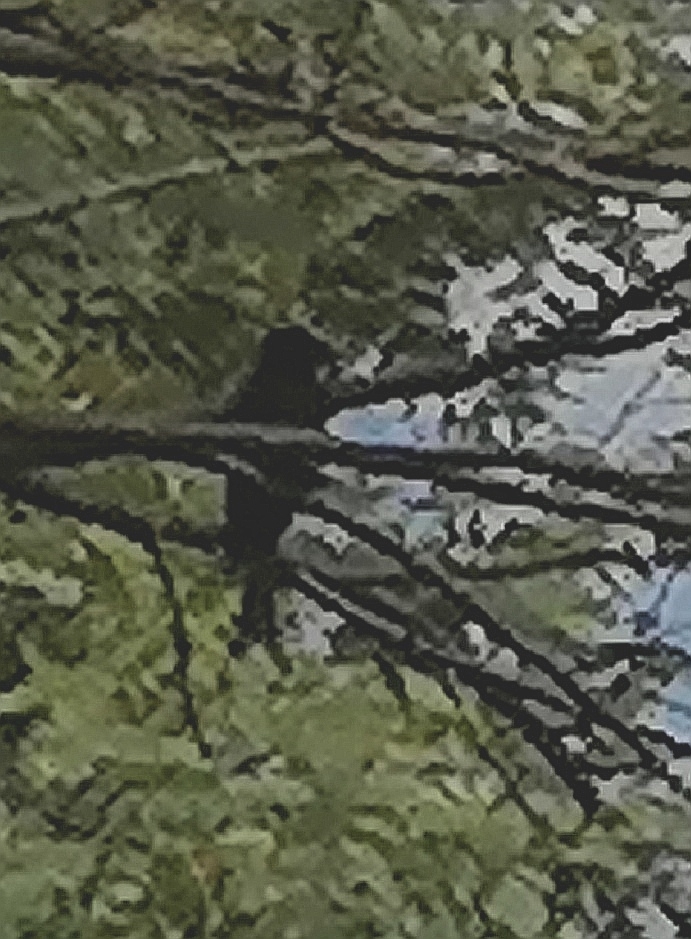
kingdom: Animalia
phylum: Chordata
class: Aves
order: Passeriformes
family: Dicruridae
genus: Dicrurus
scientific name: Dicrurus adsimilis
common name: Fork-tailed drongo
